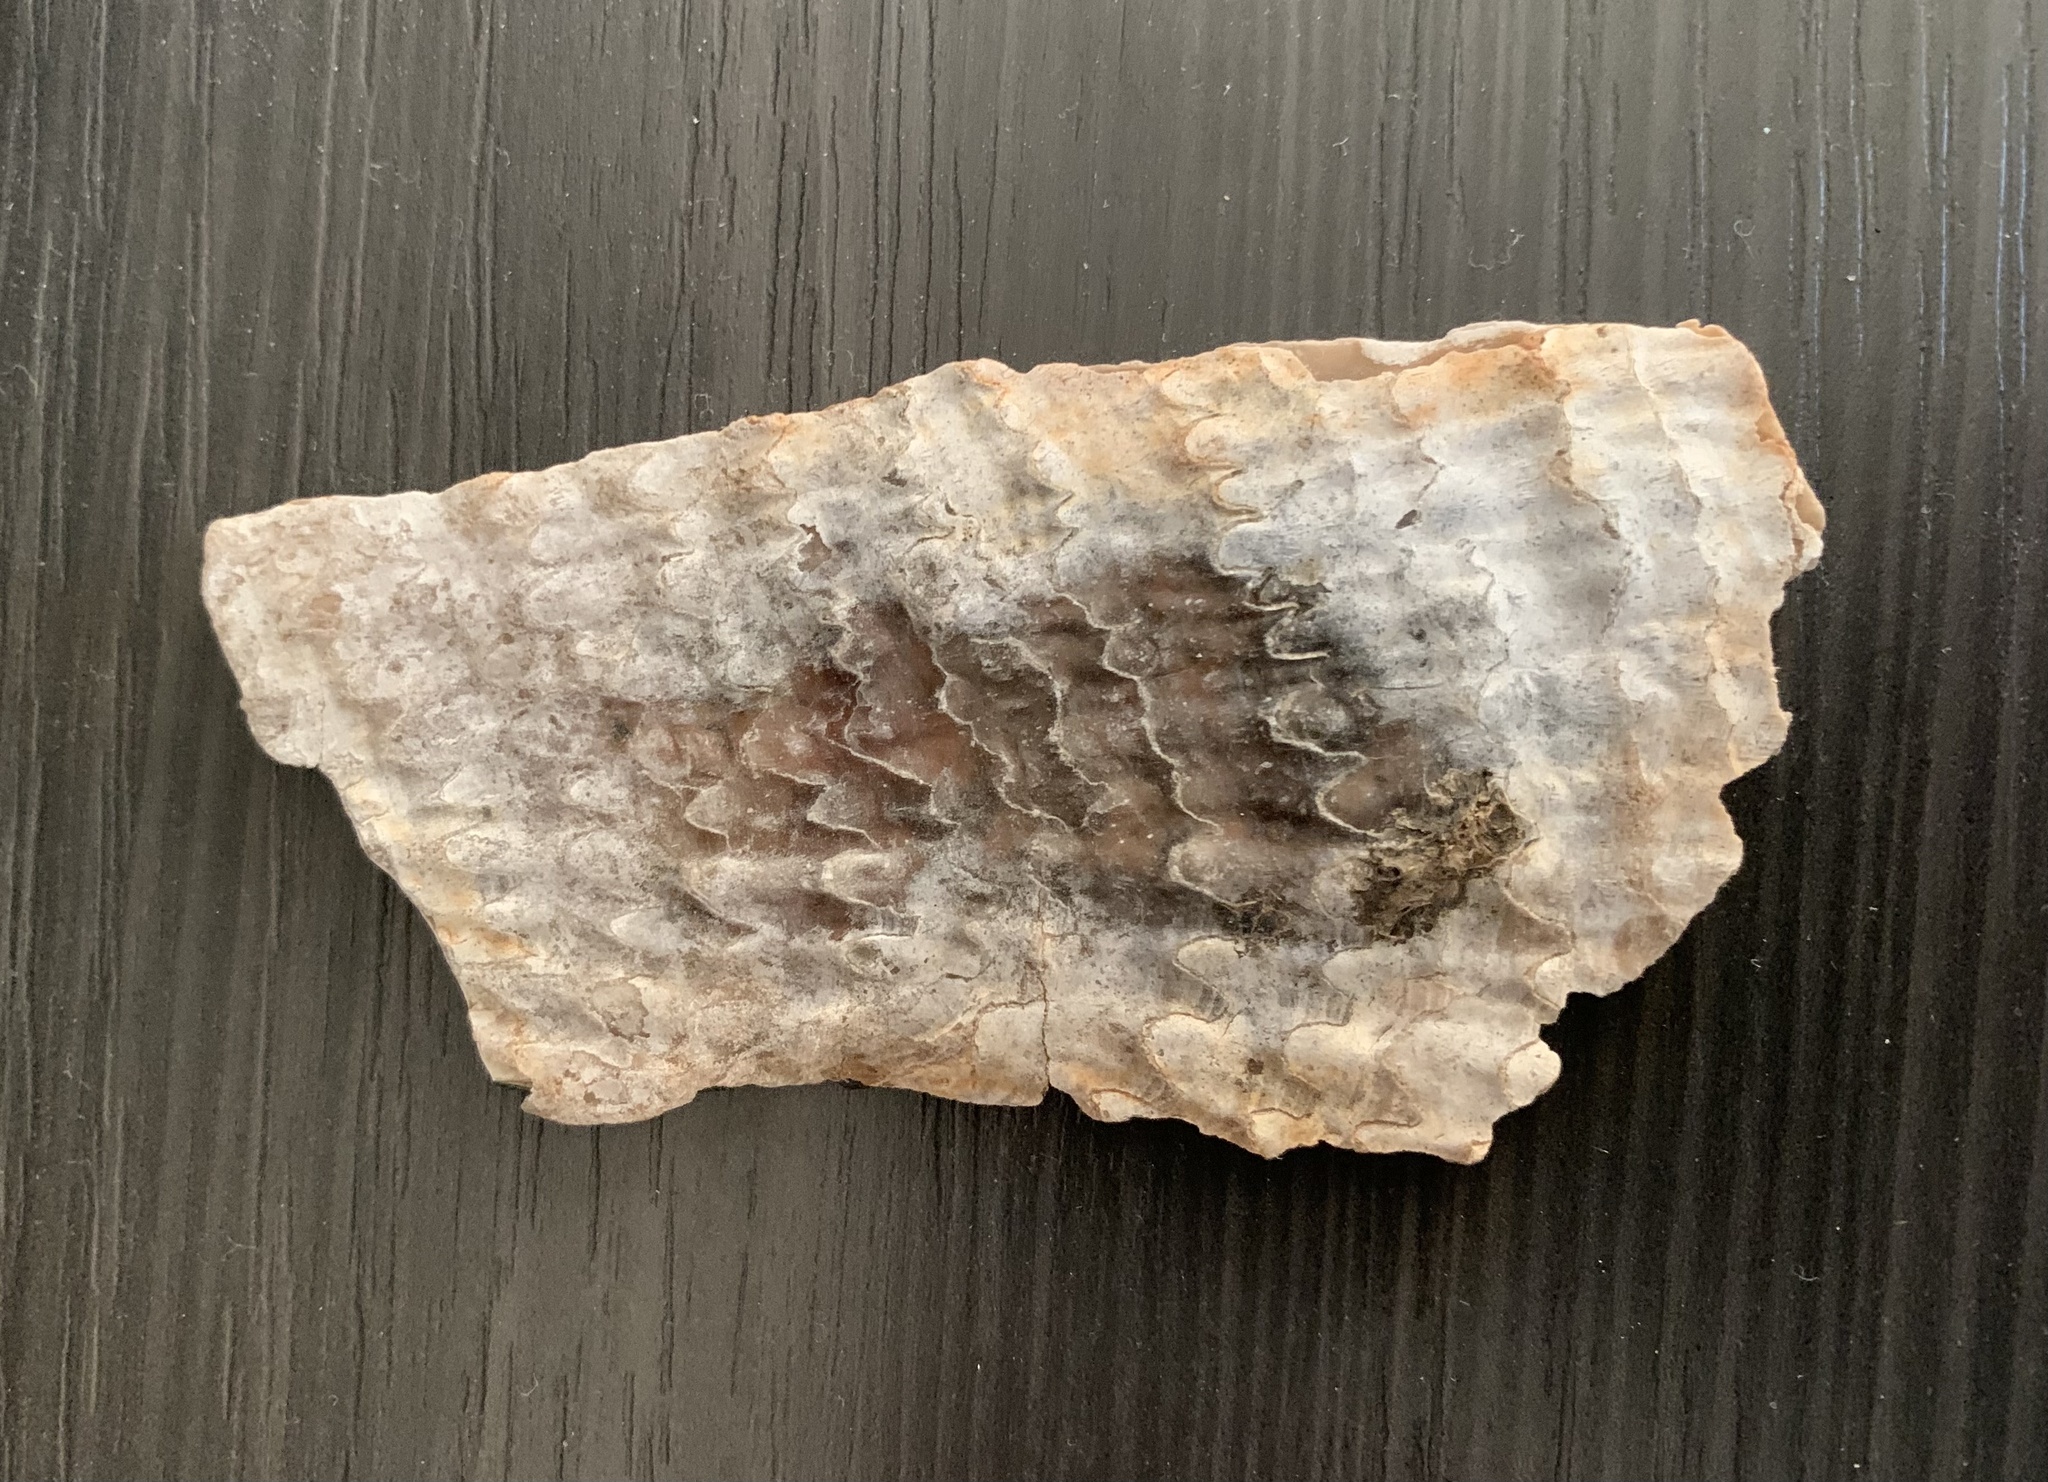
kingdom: Animalia
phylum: Mollusca
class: Bivalvia
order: Ostreida
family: Pinnidae
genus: Pinna
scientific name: Pinna nobilis
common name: Fan mussel
